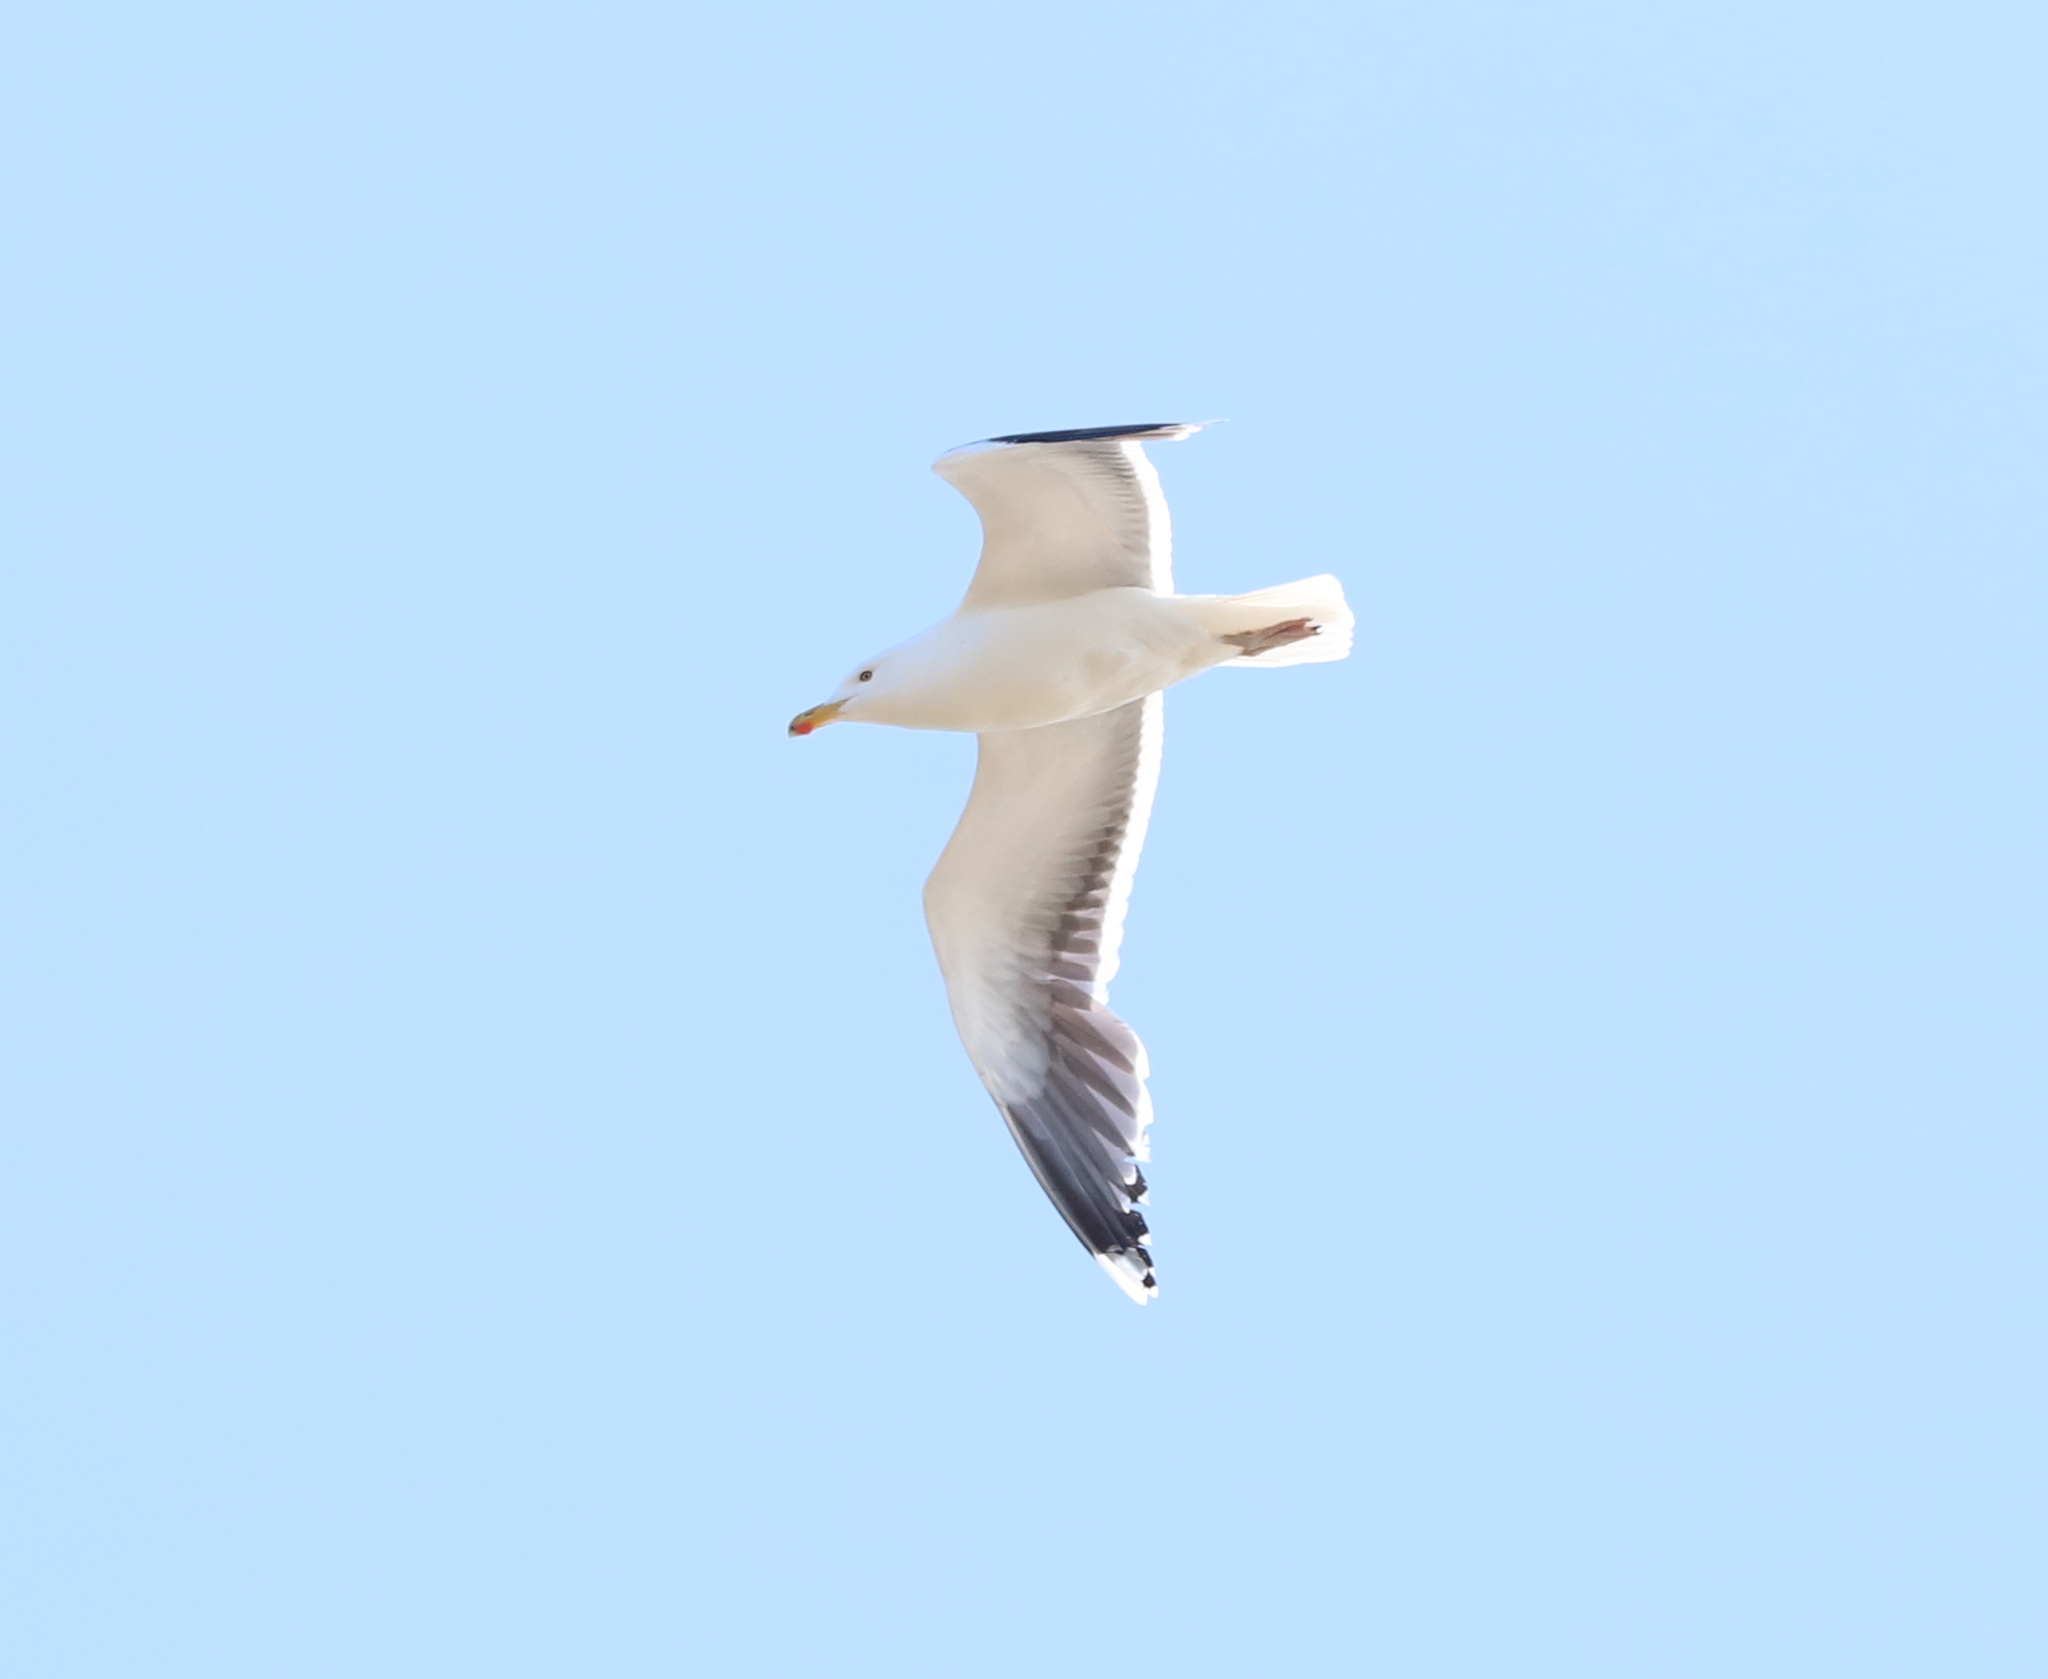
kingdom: Animalia
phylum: Chordata
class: Aves
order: Charadriiformes
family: Laridae
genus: Larus
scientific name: Larus marinus
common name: Great black-backed gull
